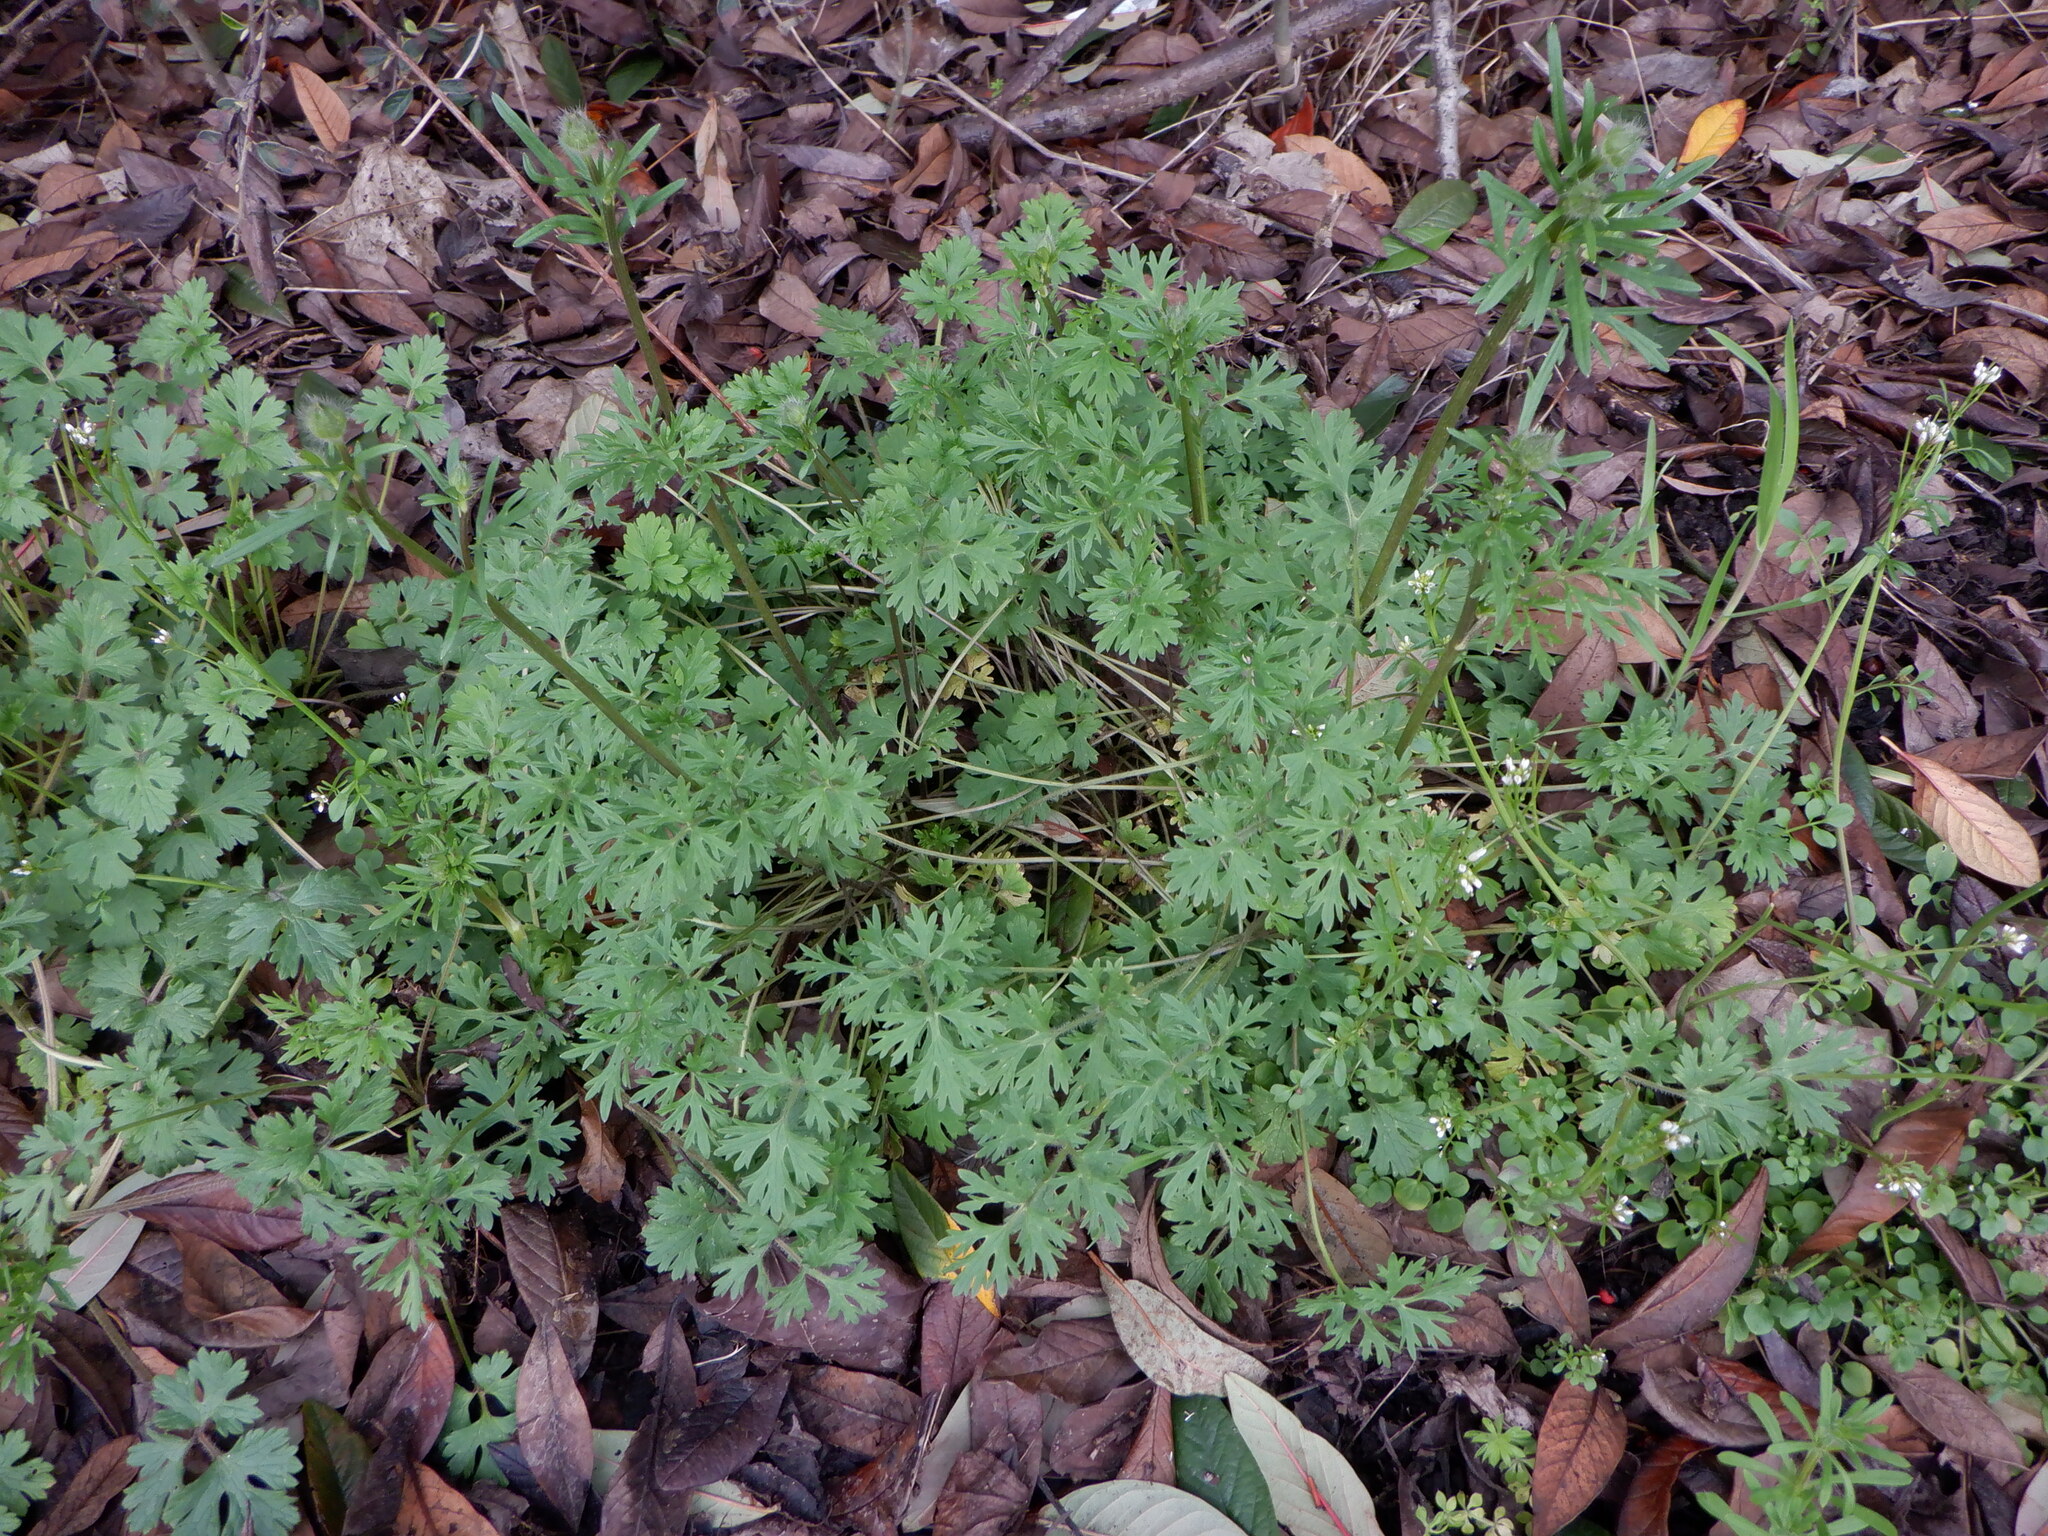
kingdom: Plantae
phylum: Tracheophyta
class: Magnoliopsida
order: Ranunculales
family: Ranunculaceae
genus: Ranunculus
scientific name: Ranunculus bulbosus
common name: Bulbous buttercup
